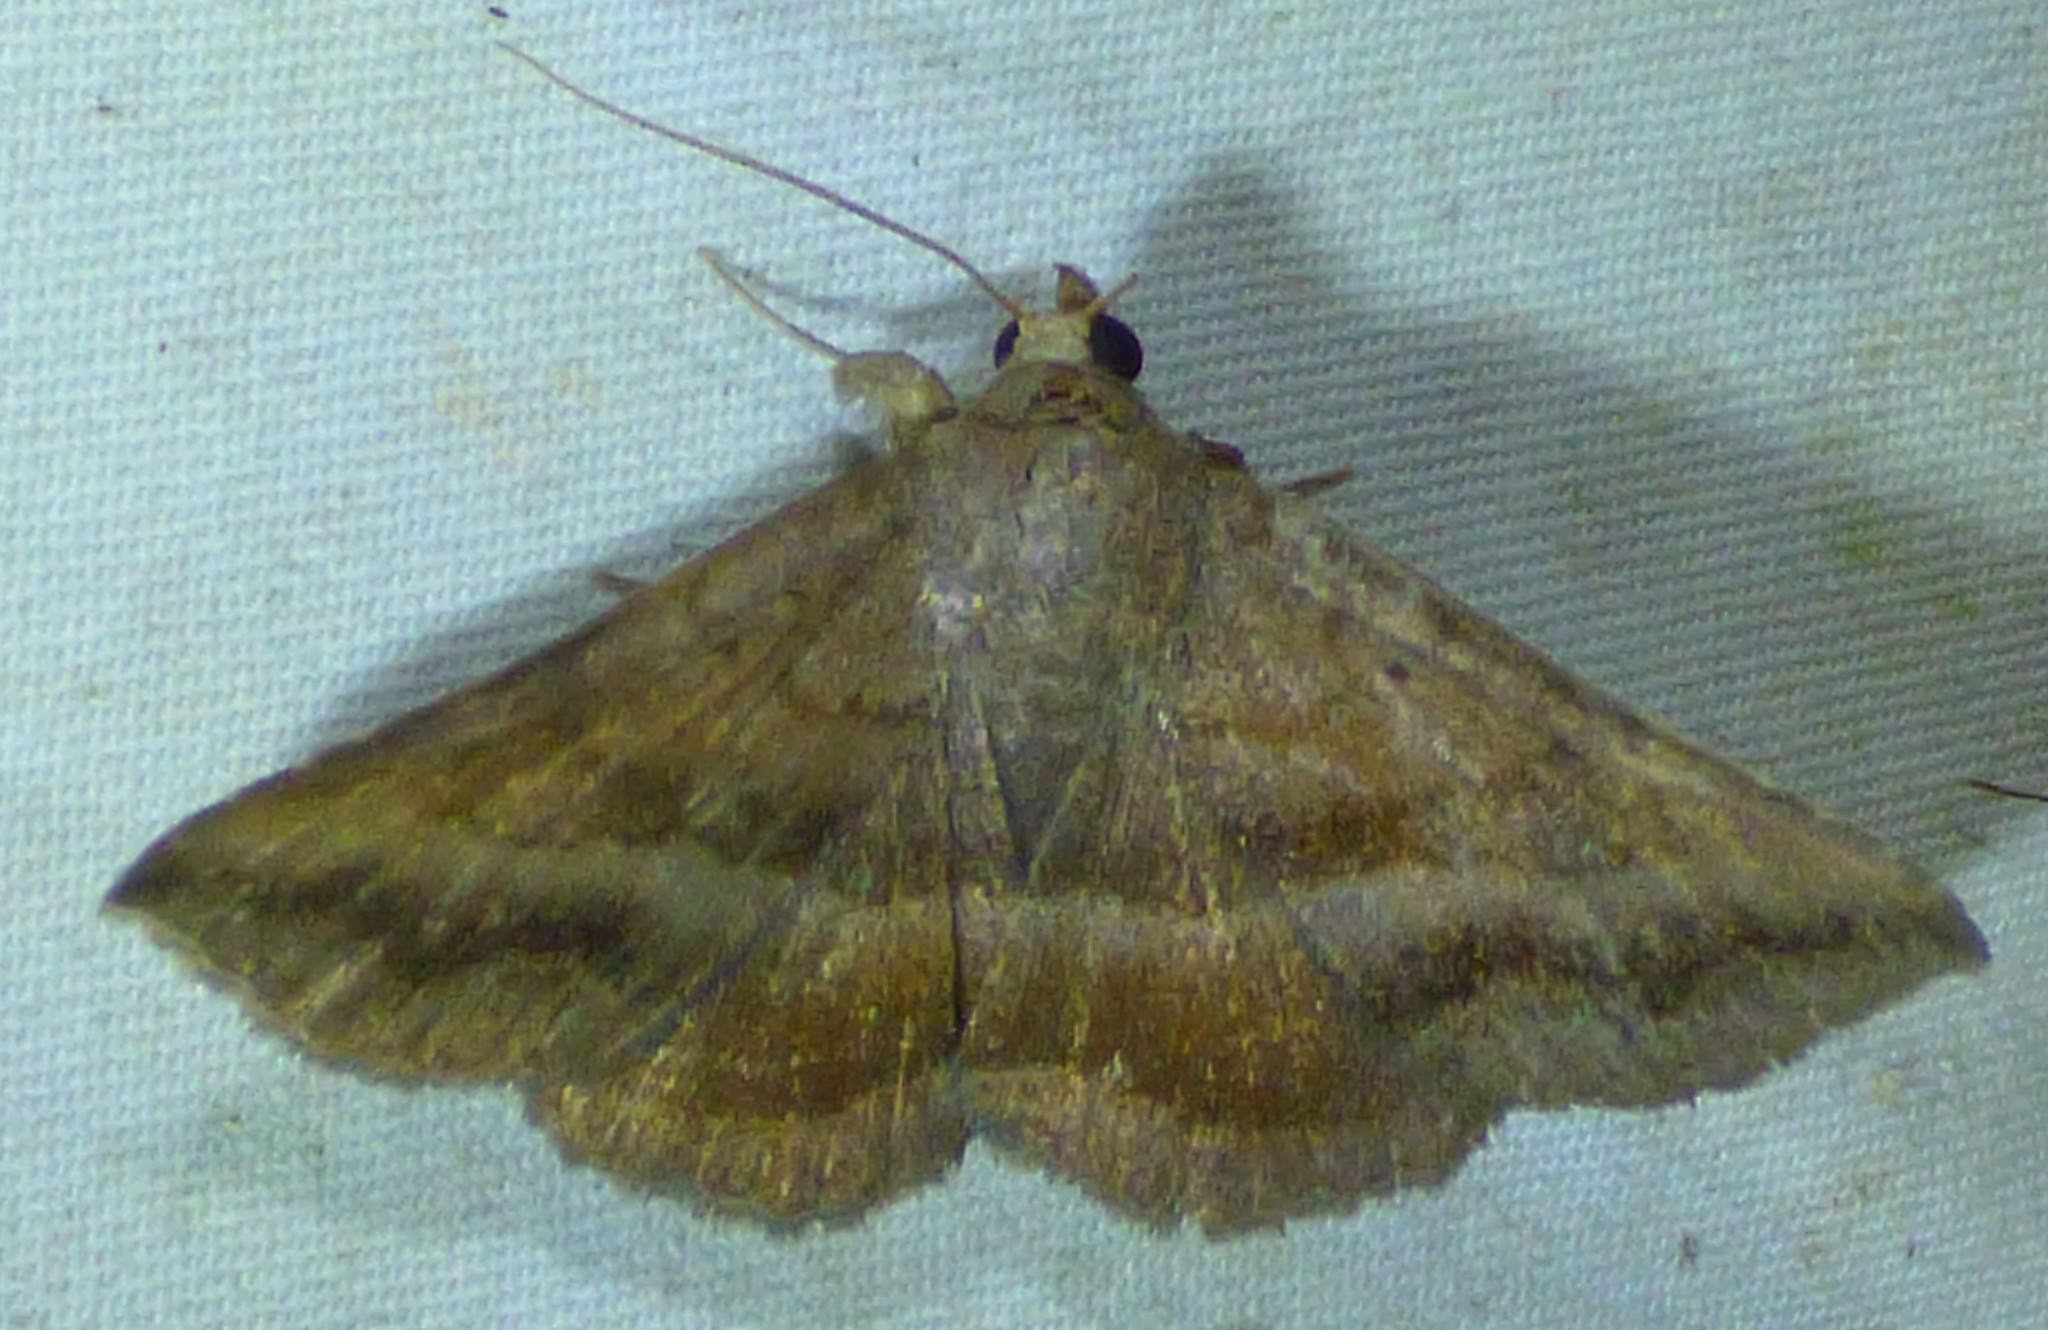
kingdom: Animalia
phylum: Arthropoda
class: Insecta
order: Lepidoptera
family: Erebidae
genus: Lesmone
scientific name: Lesmone detrahens
